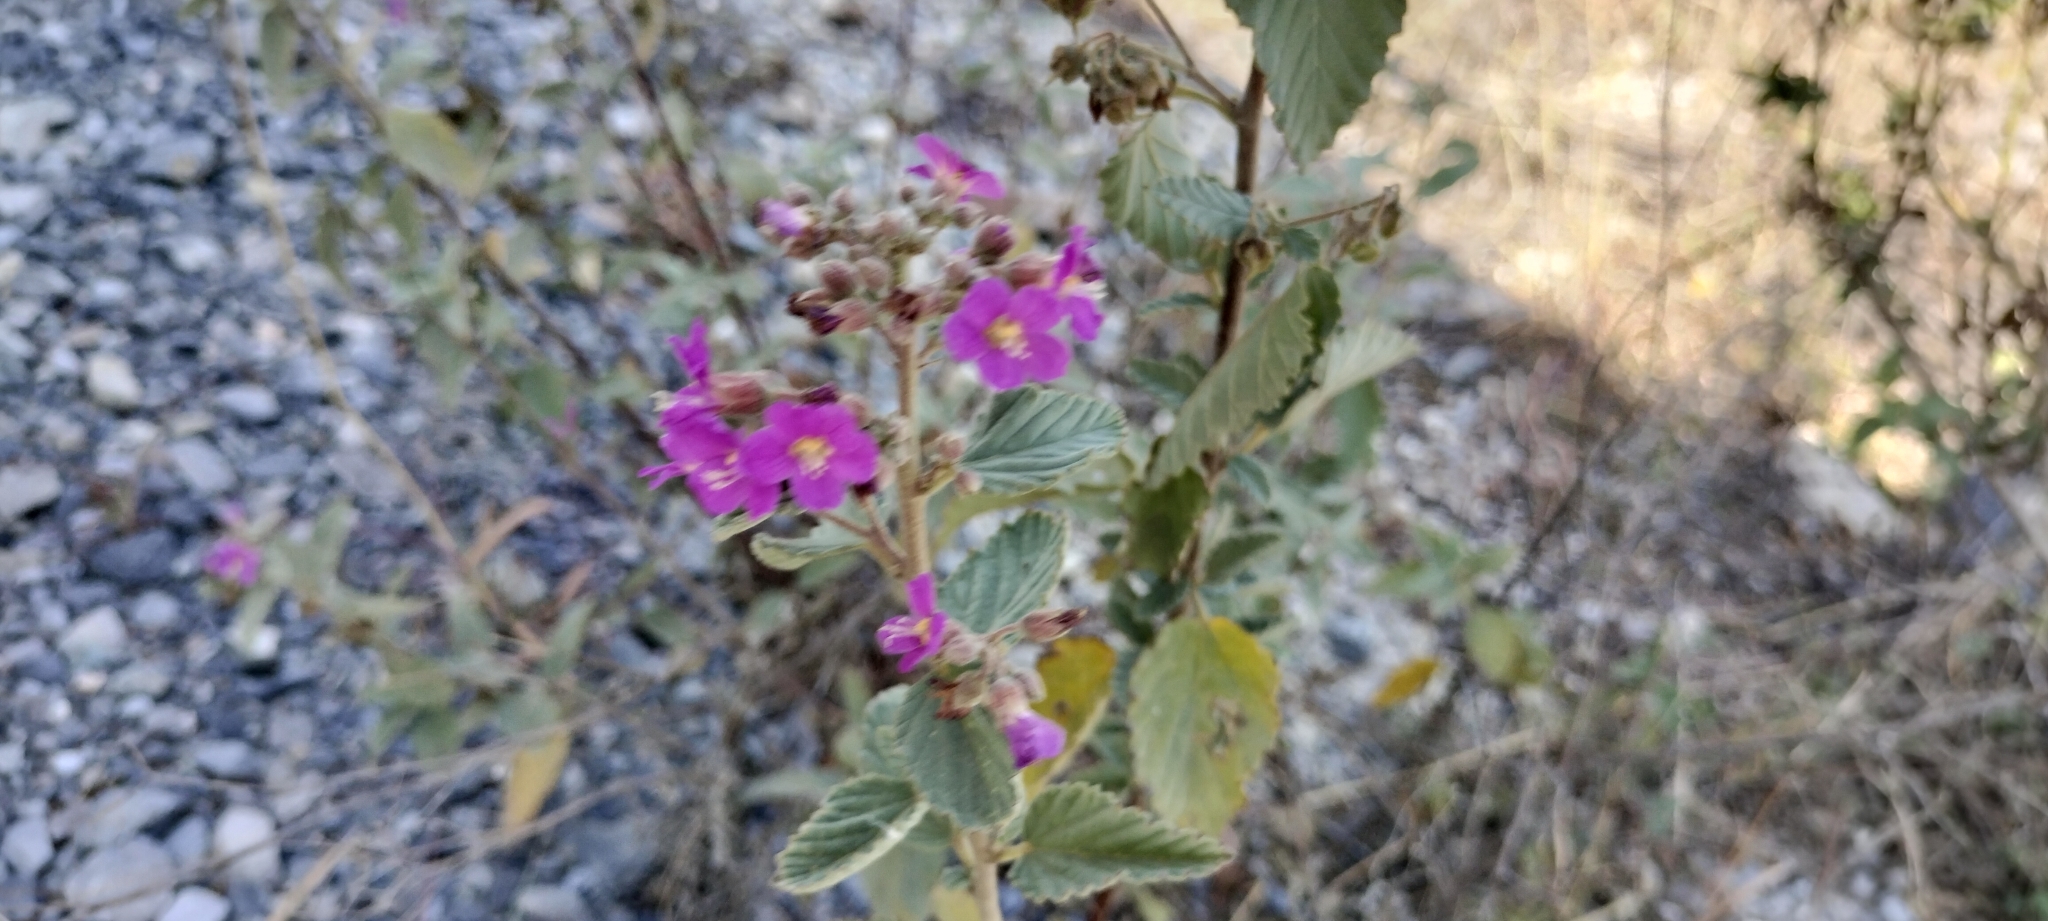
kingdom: Plantae
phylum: Tracheophyta
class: Magnoliopsida
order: Malvales
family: Malvaceae
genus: Melochia
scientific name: Melochia tomentosa
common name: Black torch
